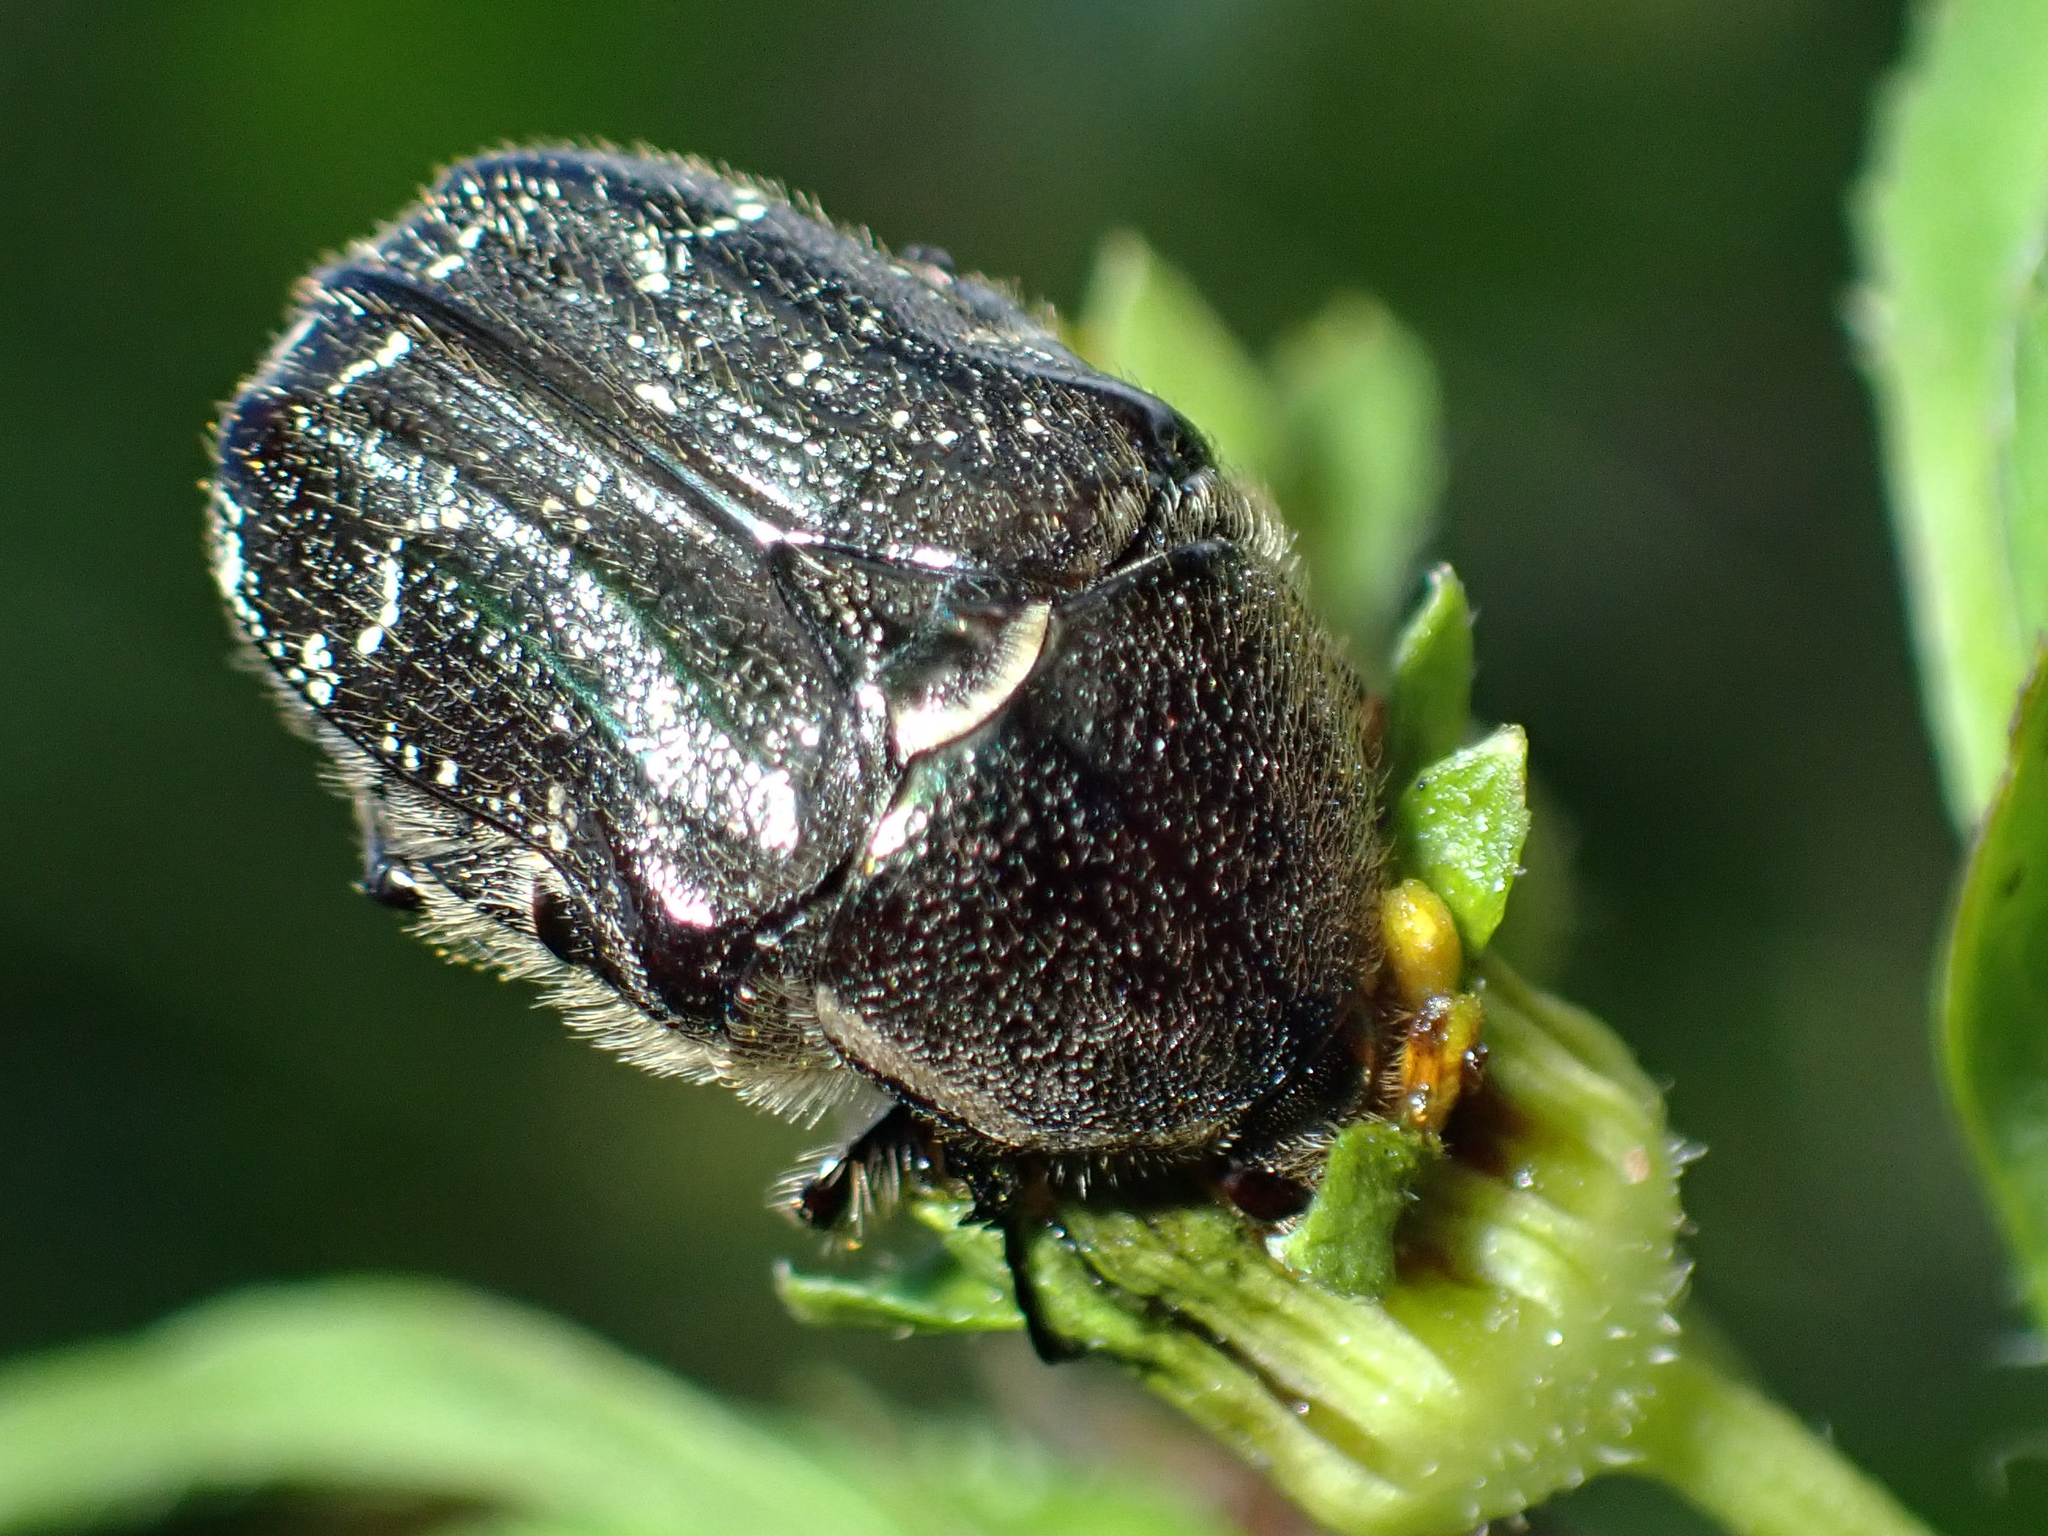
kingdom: Animalia
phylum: Arthropoda
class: Insecta
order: Coleoptera
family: Scarabaeidae
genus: Euphoria
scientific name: Euphoria sepulcralis
